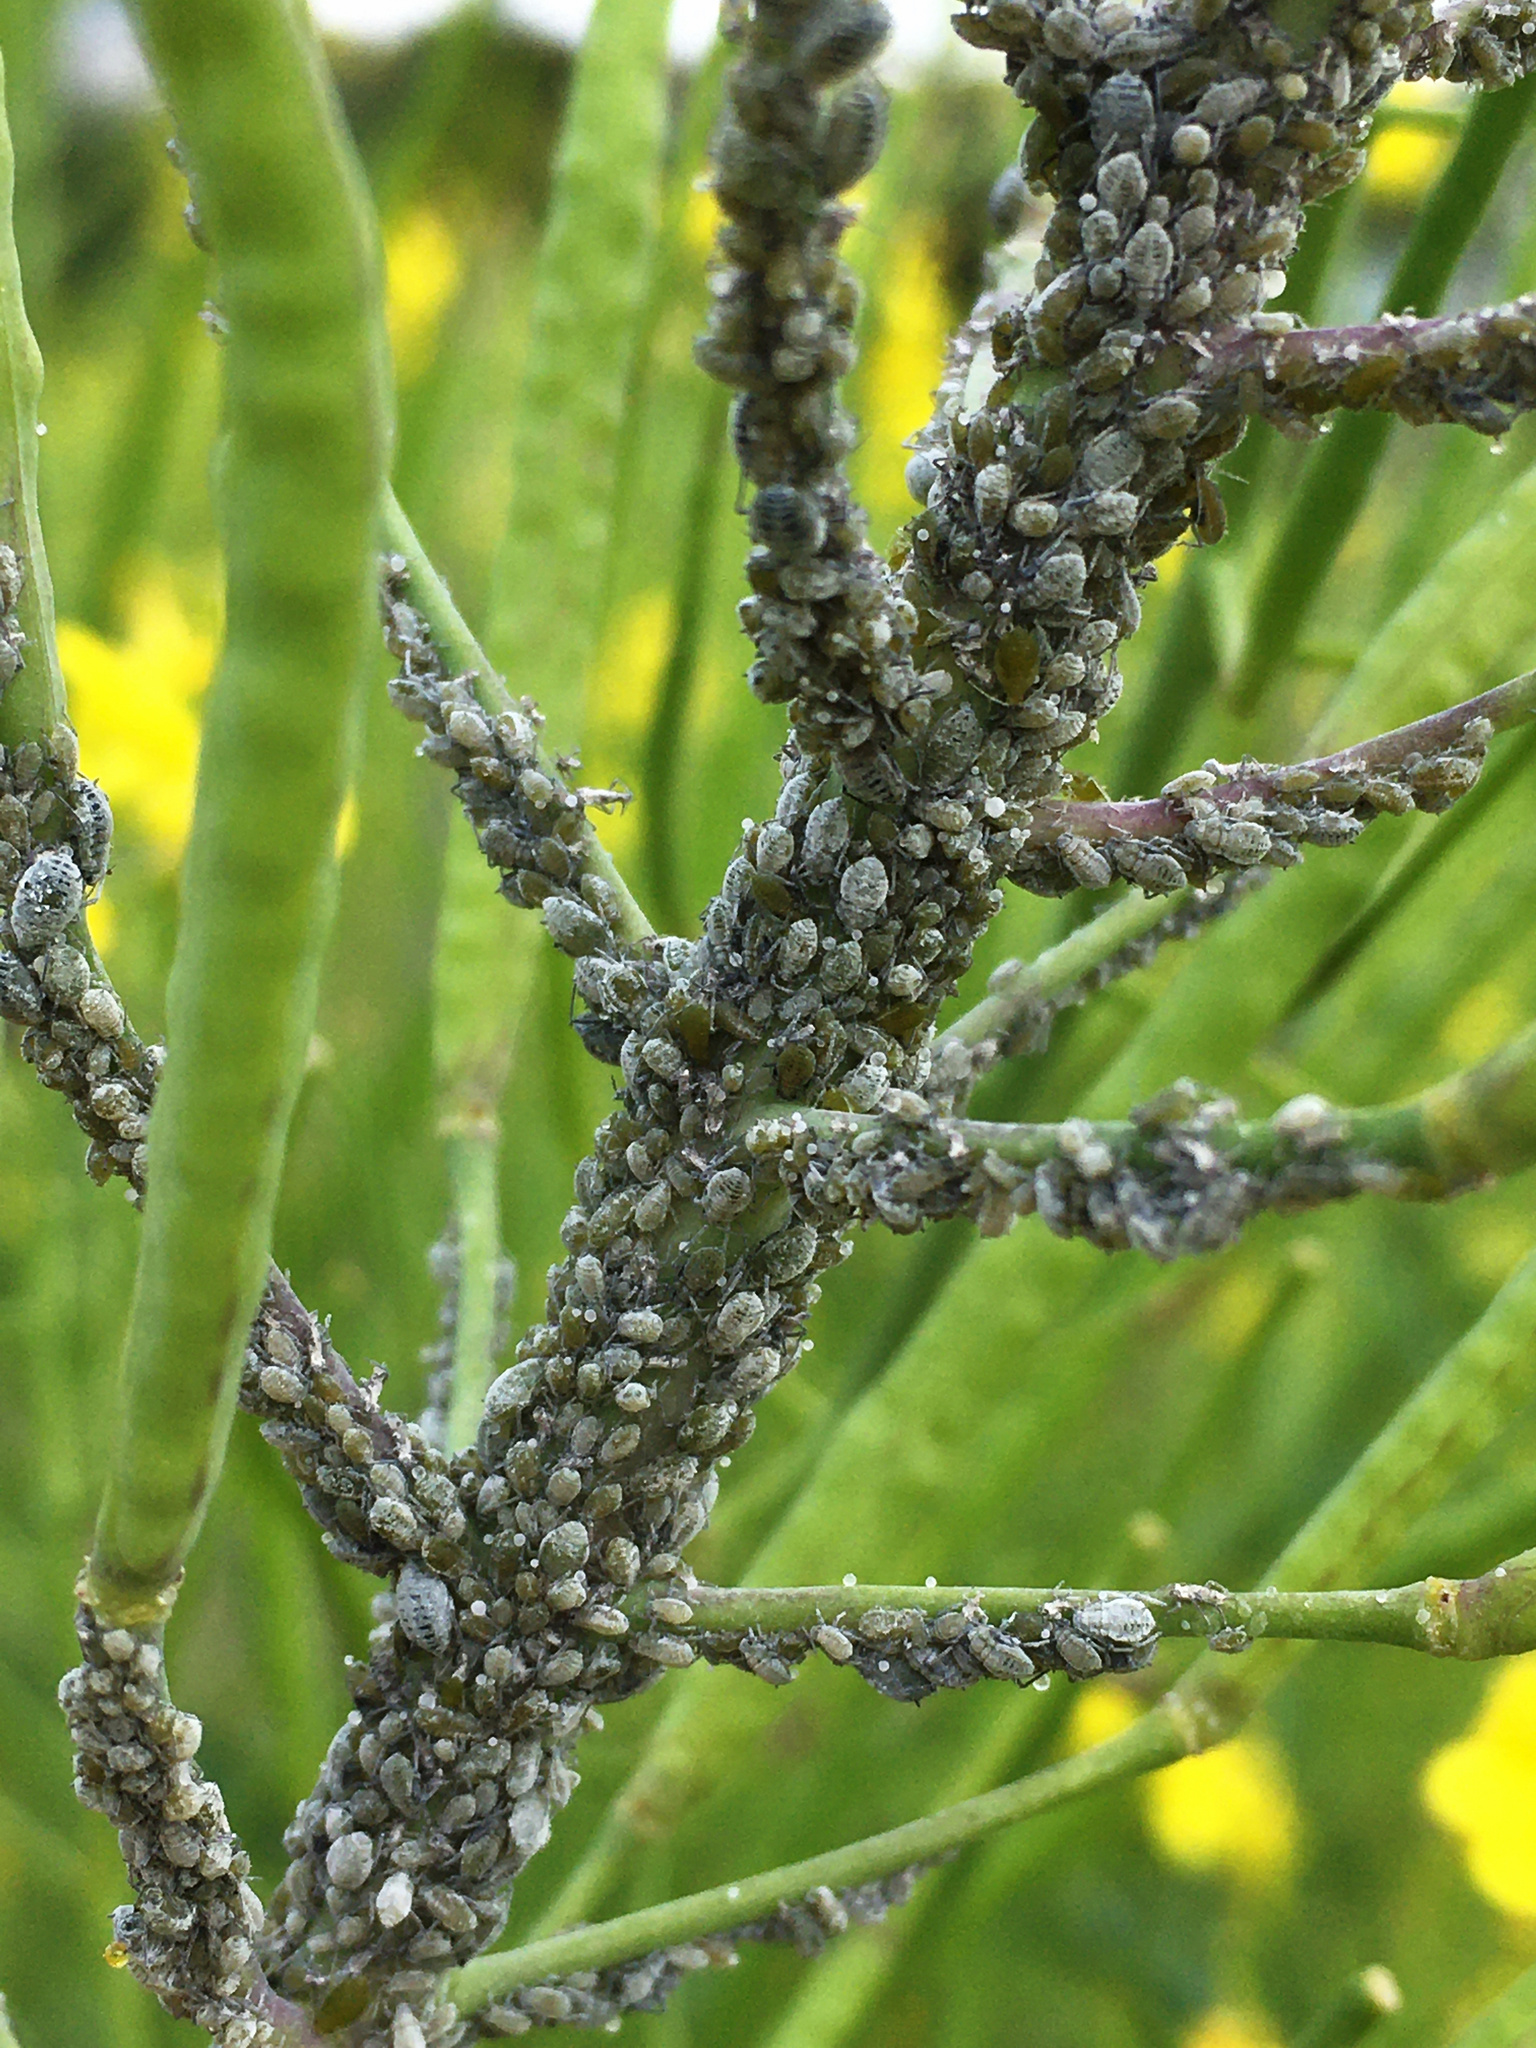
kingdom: Animalia
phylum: Arthropoda
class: Insecta
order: Hemiptera
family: Aphididae
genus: Brevicoryne
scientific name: Brevicoryne brassicae
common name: Cabbage aphid
